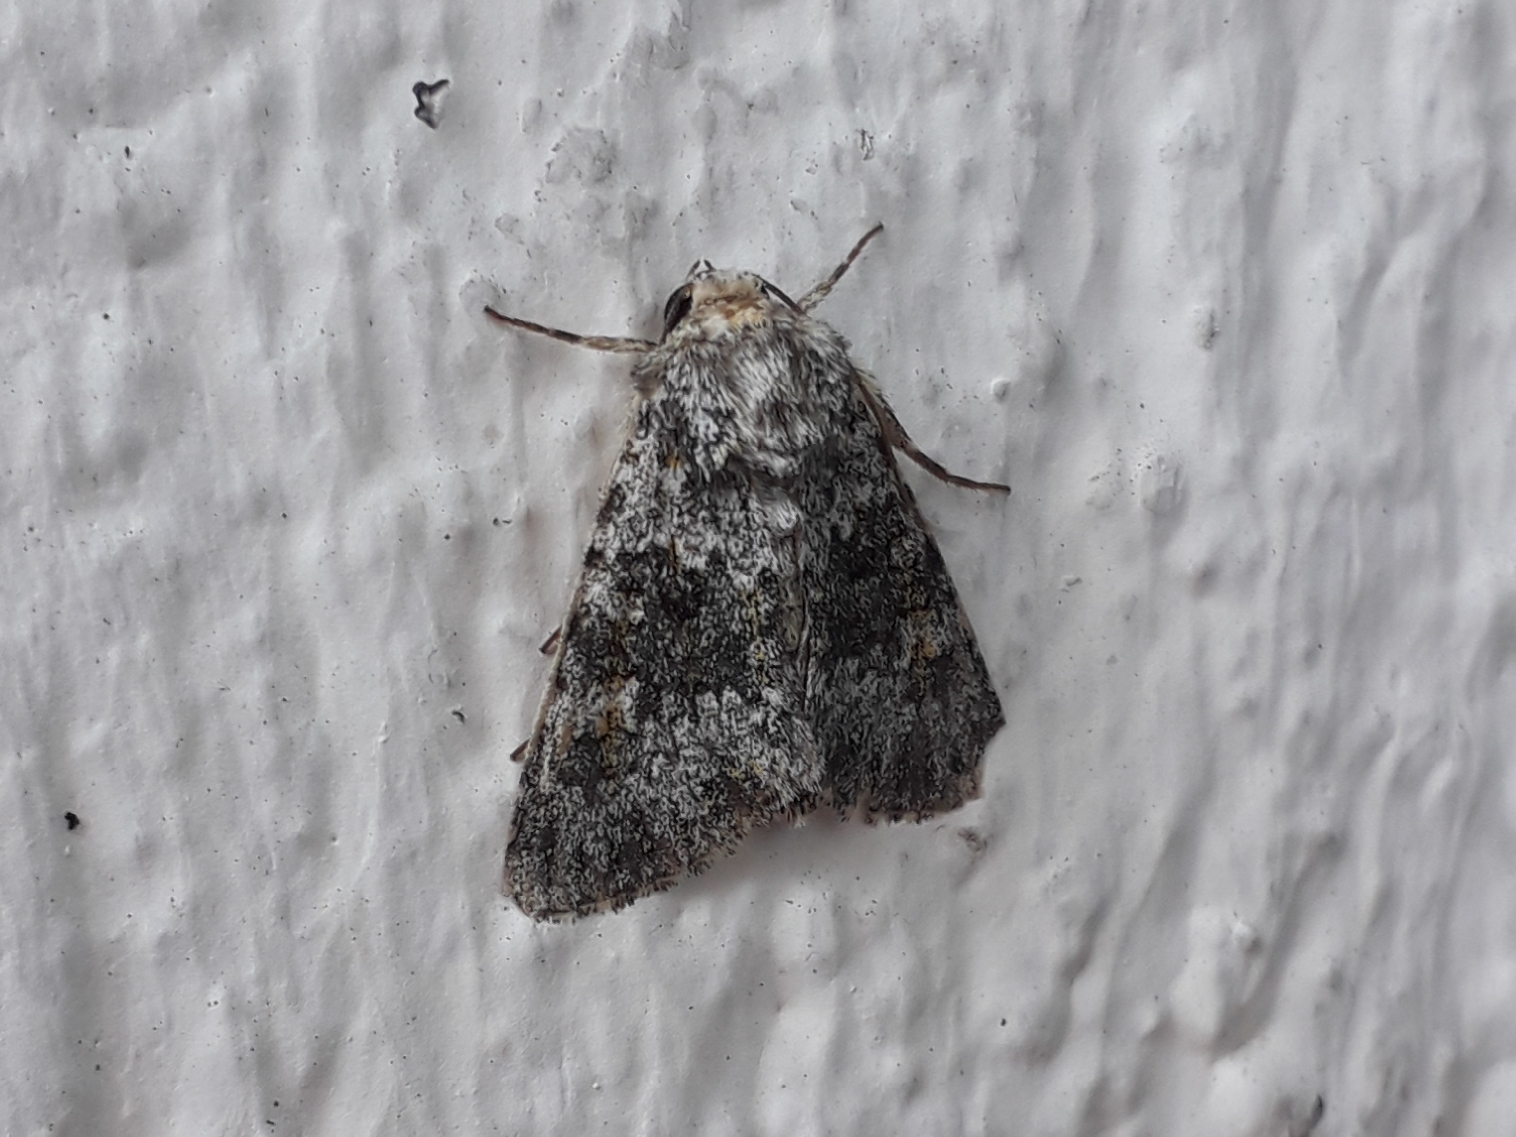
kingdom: Animalia
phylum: Arthropoda
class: Insecta
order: Lepidoptera
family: Noctuidae
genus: Hecatera
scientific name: Hecatera dysodea
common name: Small ranunculus
